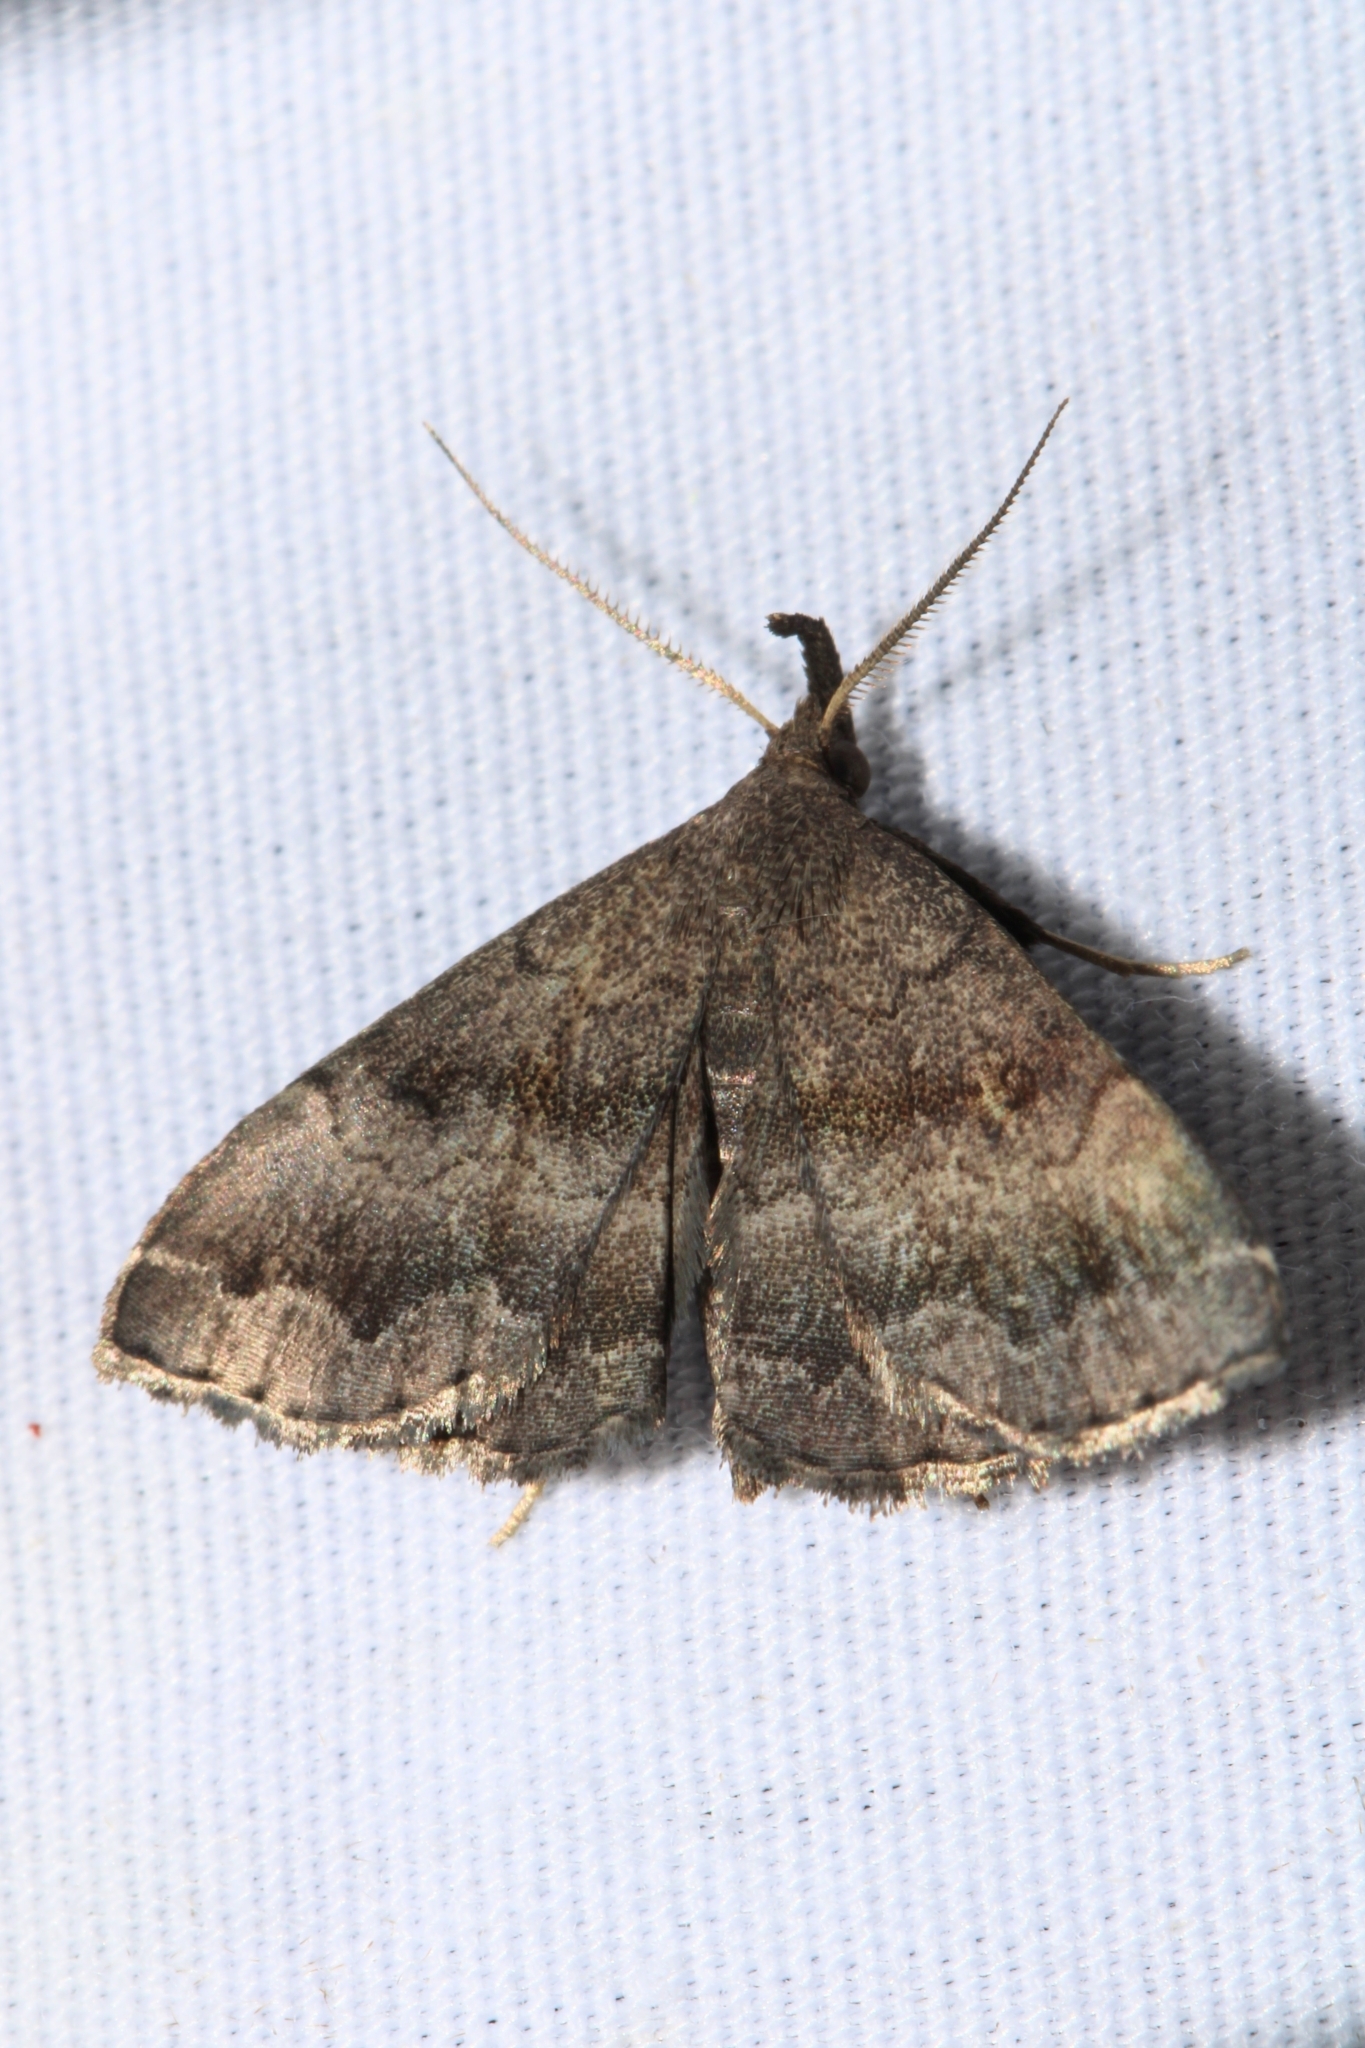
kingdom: Animalia
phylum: Arthropoda
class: Insecta
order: Lepidoptera
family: Erebidae
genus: Phalaenostola
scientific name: Phalaenostola larentioides
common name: Black-banded owlet
